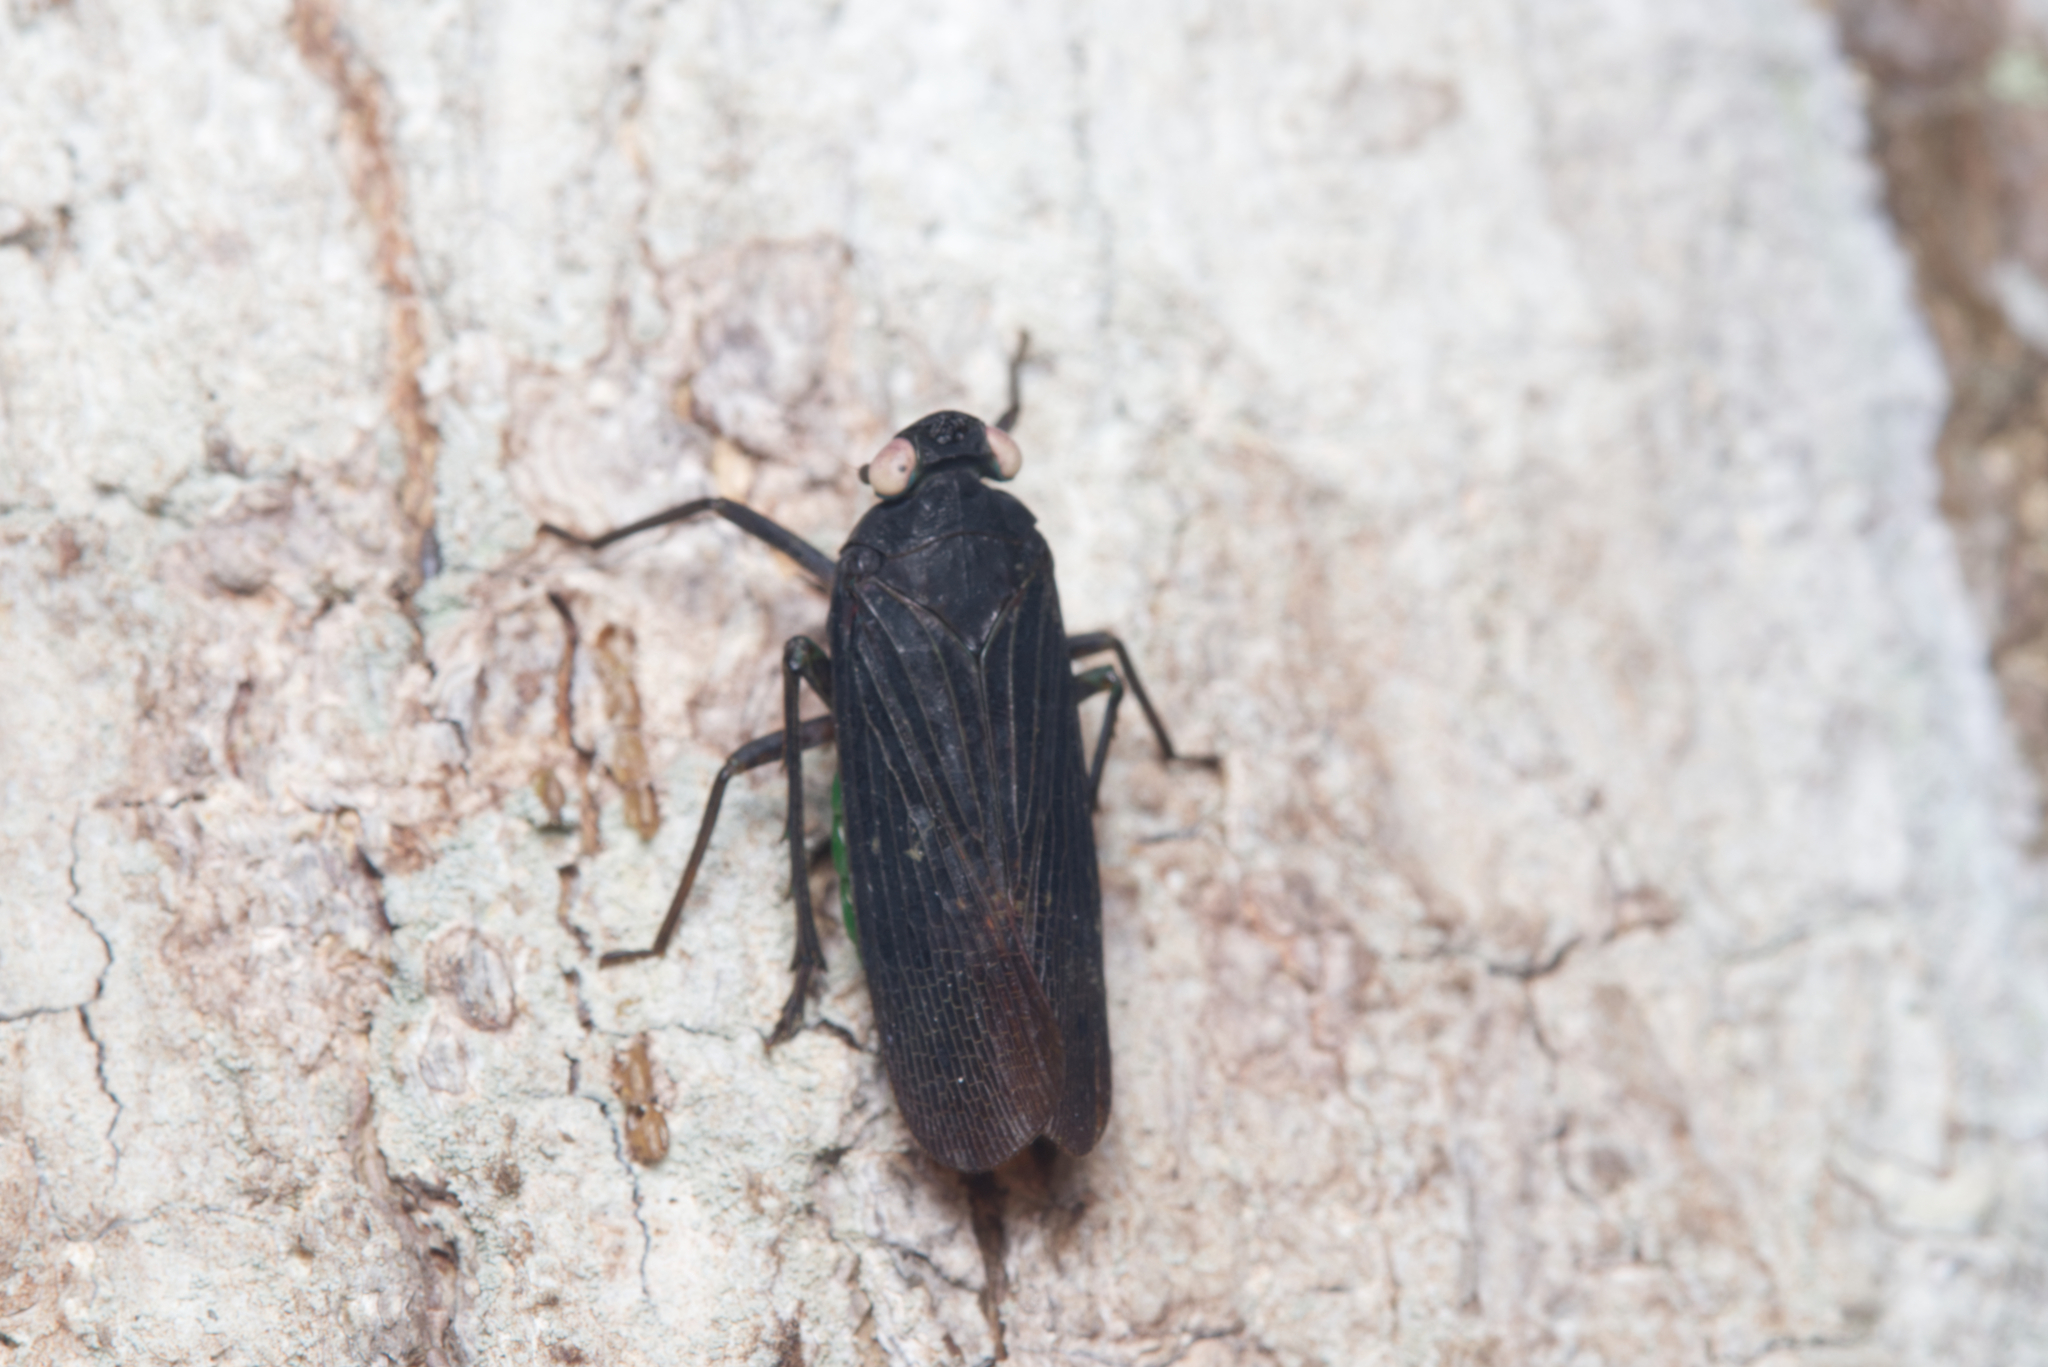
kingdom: Animalia
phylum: Arthropoda
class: Insecta
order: Hemiptera
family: Fulgoridae
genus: Desudaba
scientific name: Desudaba psittacus
